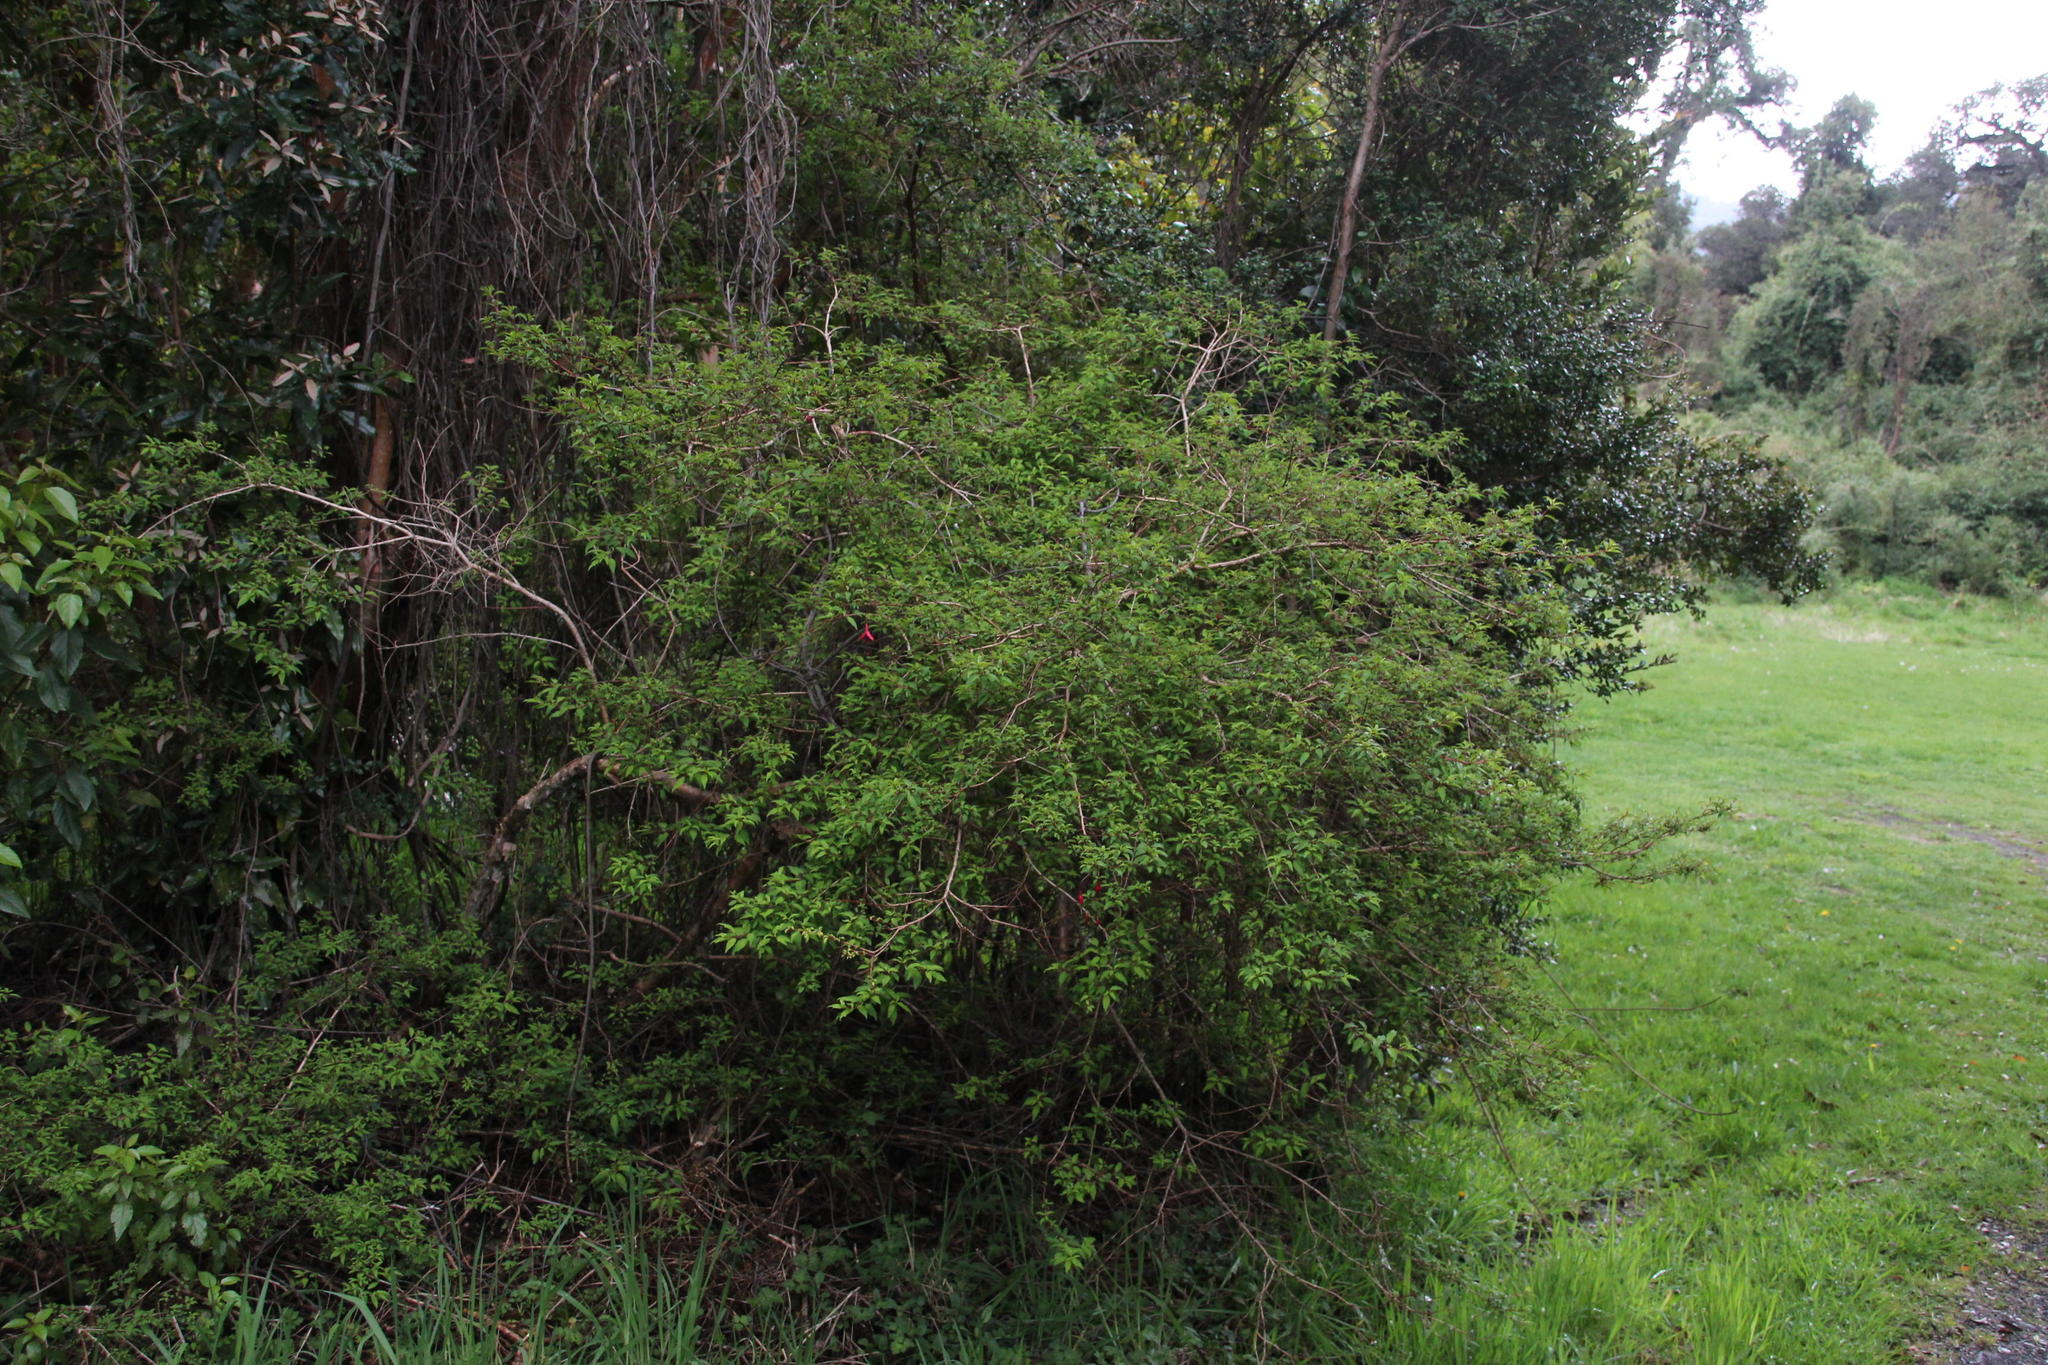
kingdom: Plantae
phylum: Tracheophyta
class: Magnoliopsida
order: Myrtales
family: Onagraceae
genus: Fuchsia
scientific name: Fuchsia magellanica
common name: Hardy fuchsia
